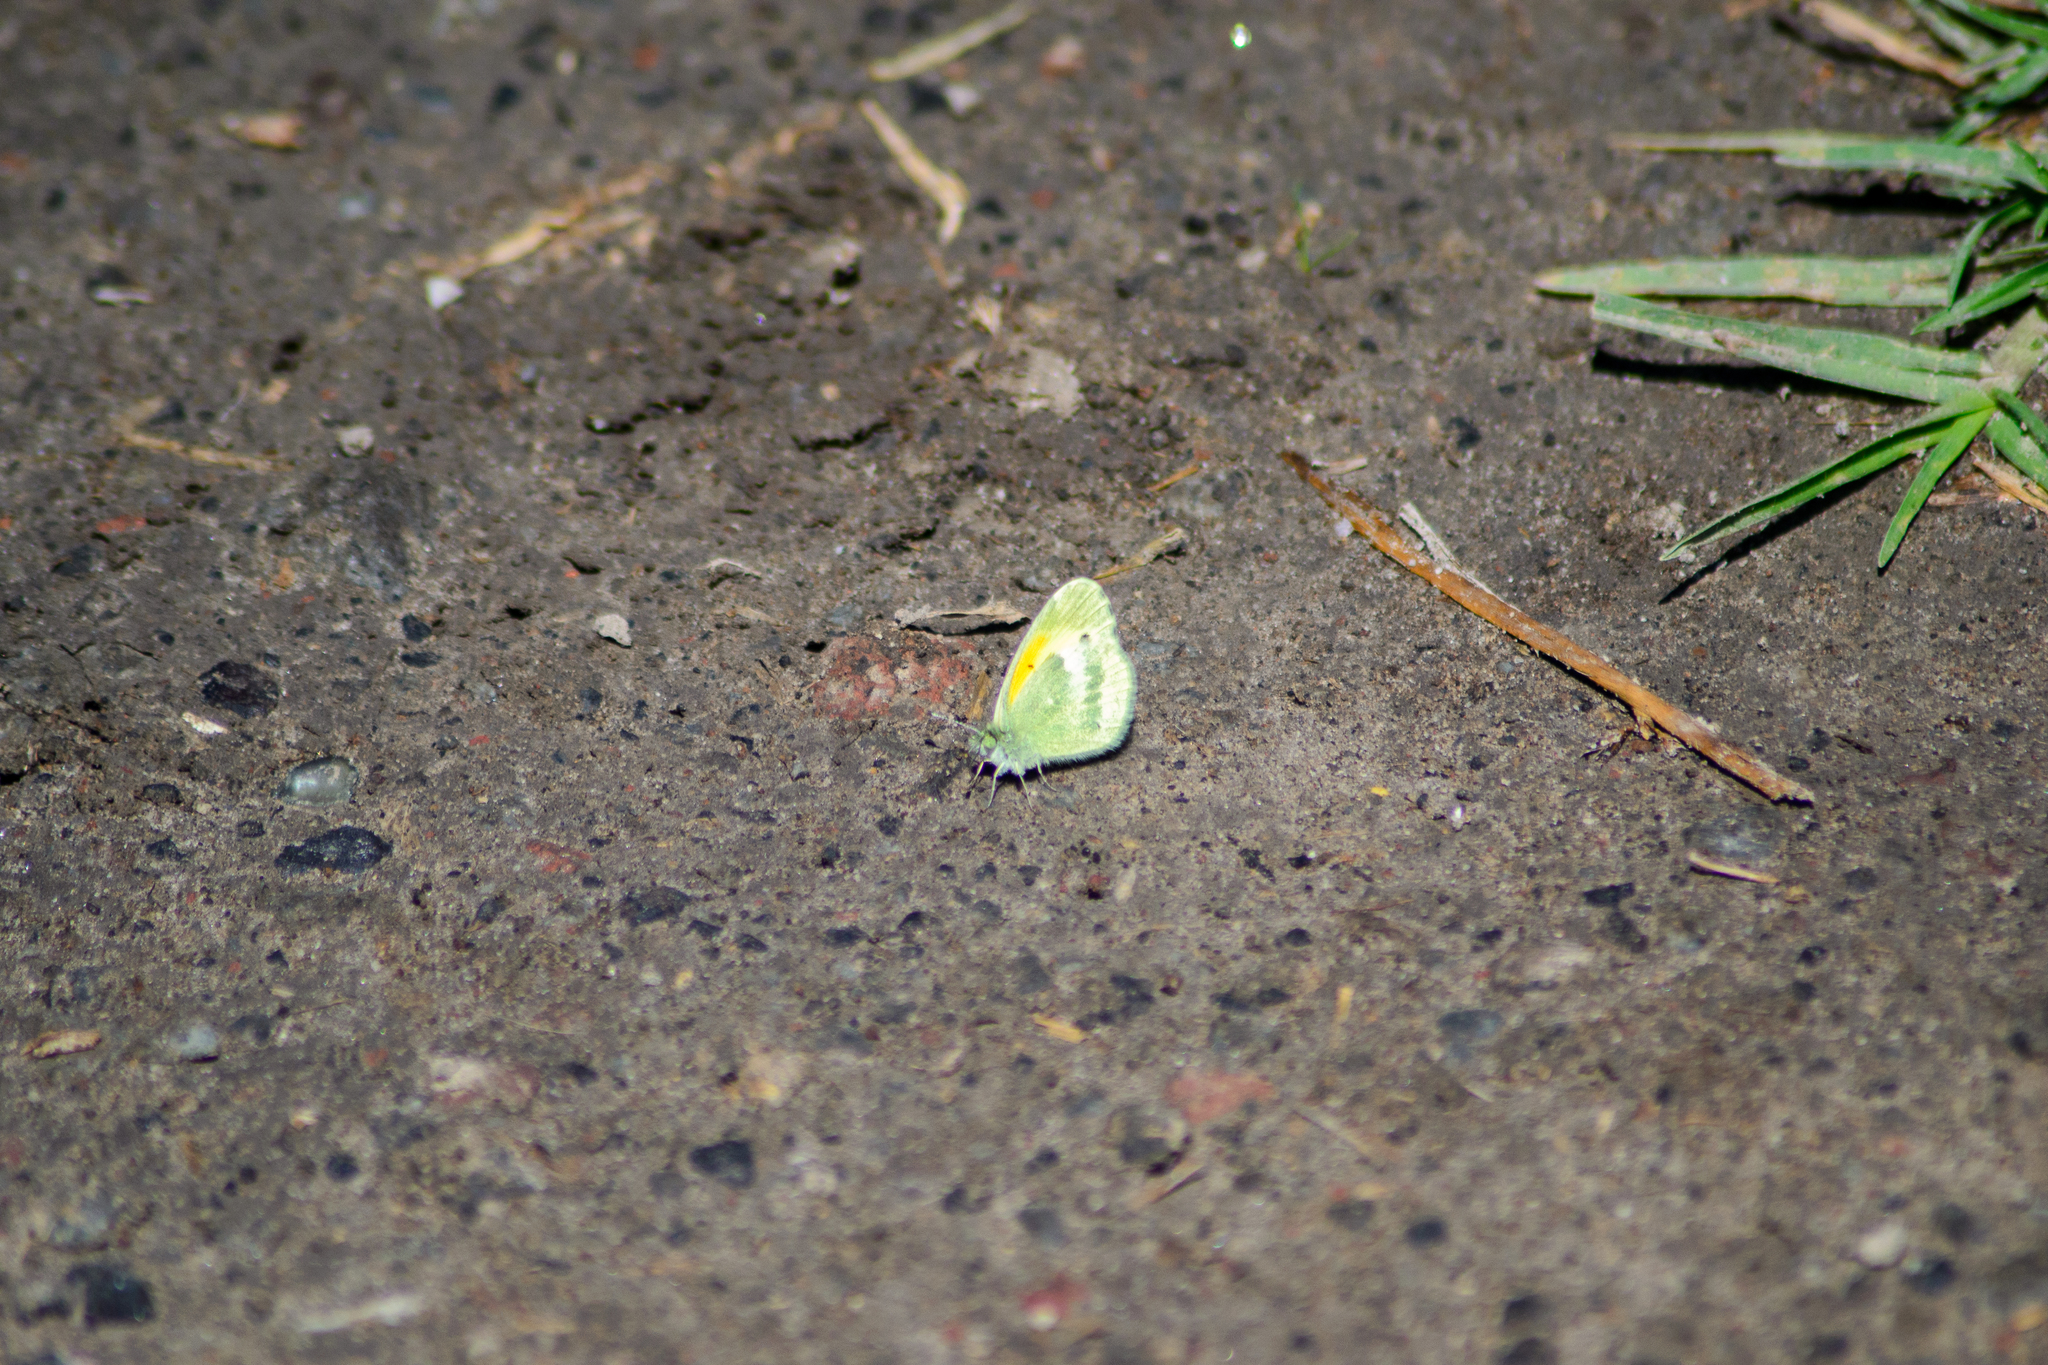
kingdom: Animalia
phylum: Arthropoda
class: Insecta
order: Lepidoptera
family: Pieridae
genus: Nathalis
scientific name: Nathalis iole
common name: Dainty sulphur
